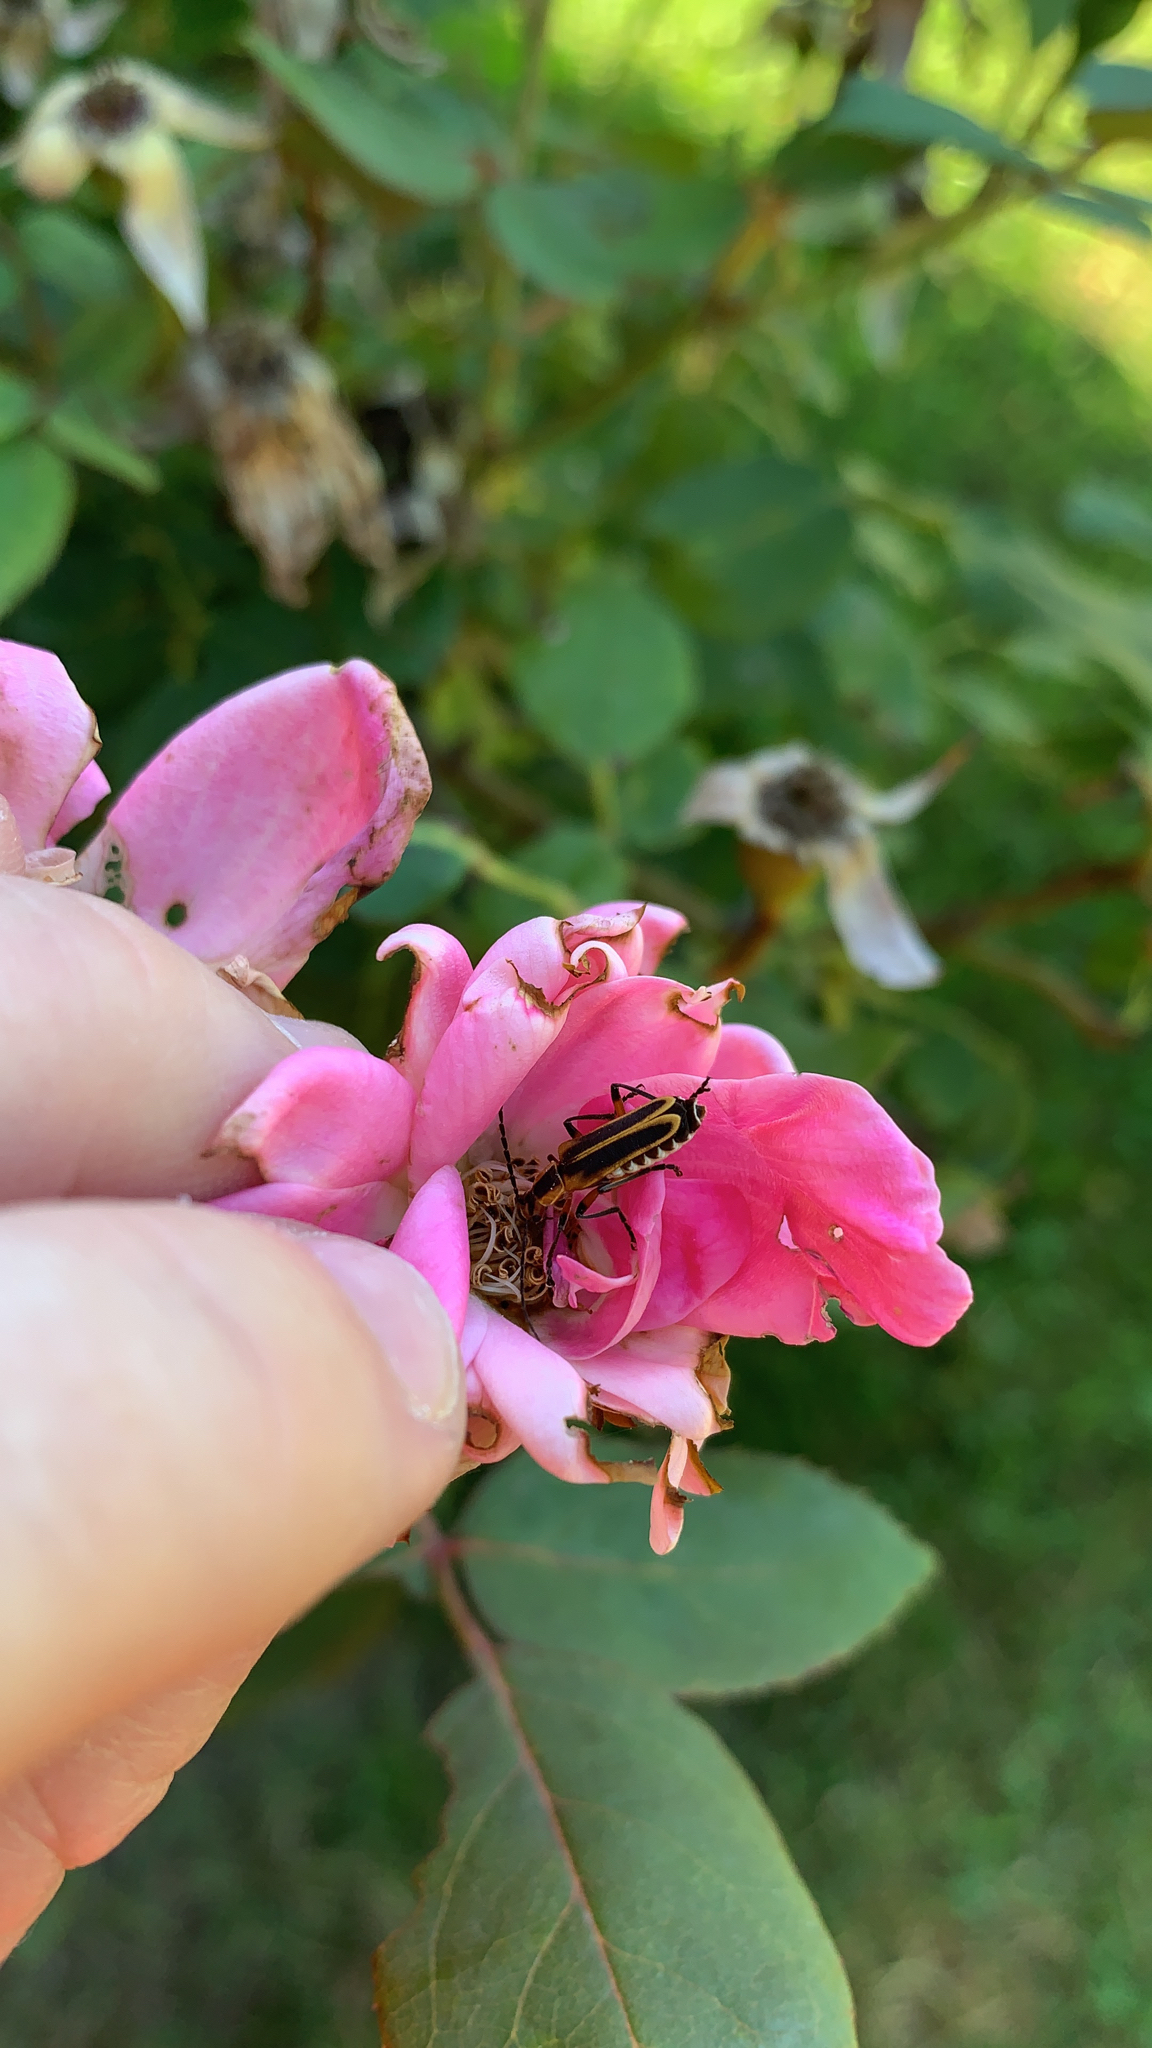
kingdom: Animalia
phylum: Arthropoda
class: Insecta
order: Coleoptera
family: Cantharidae
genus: Chauliognathus
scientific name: Chauliognathus marginatus
